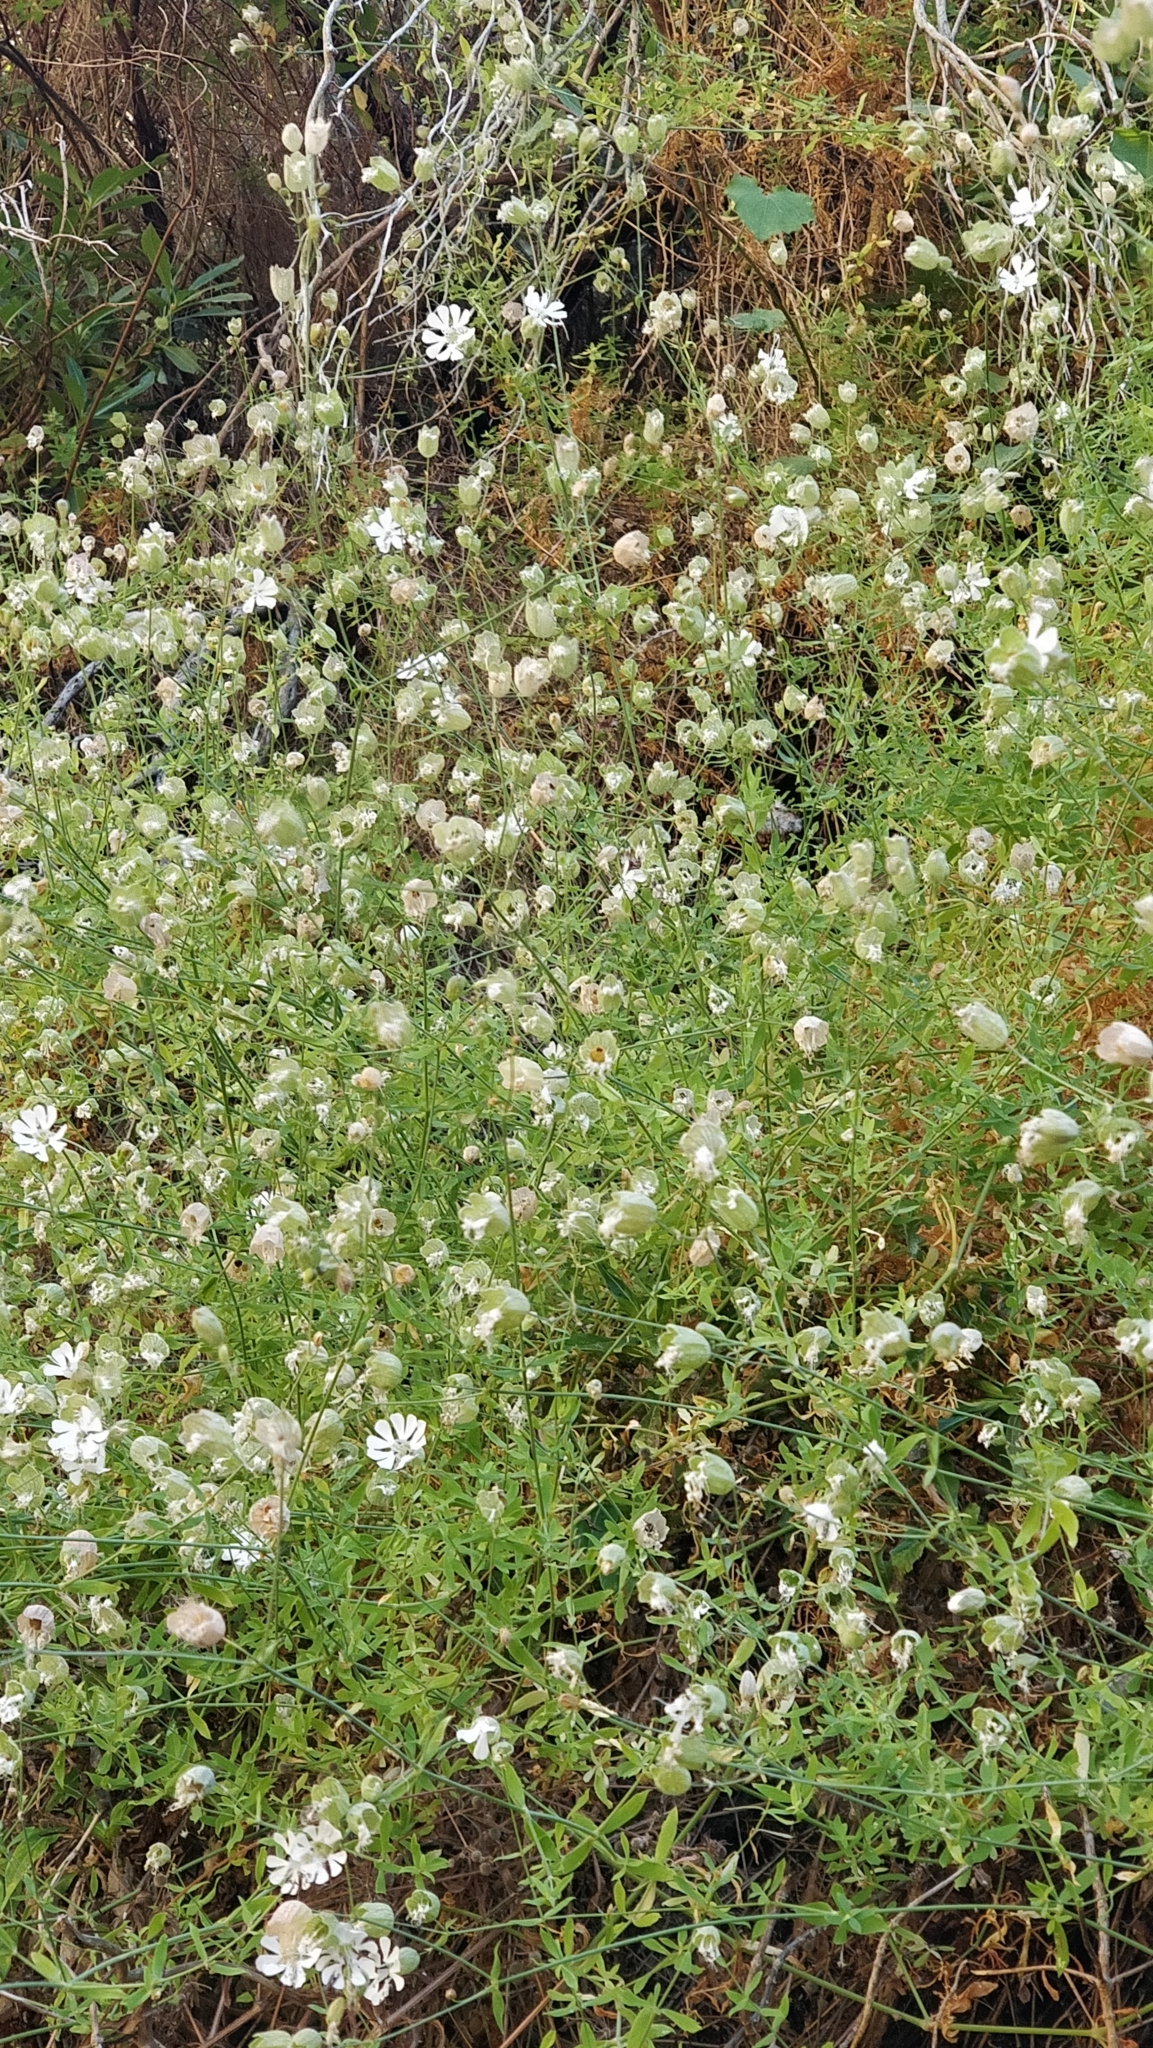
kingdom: Plantae
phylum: Tracheophyta
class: Magnoliopsida
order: Caryophyllales
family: Caryophyllaceae
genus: Silene
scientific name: Silene vulgaris
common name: Bladder campion
